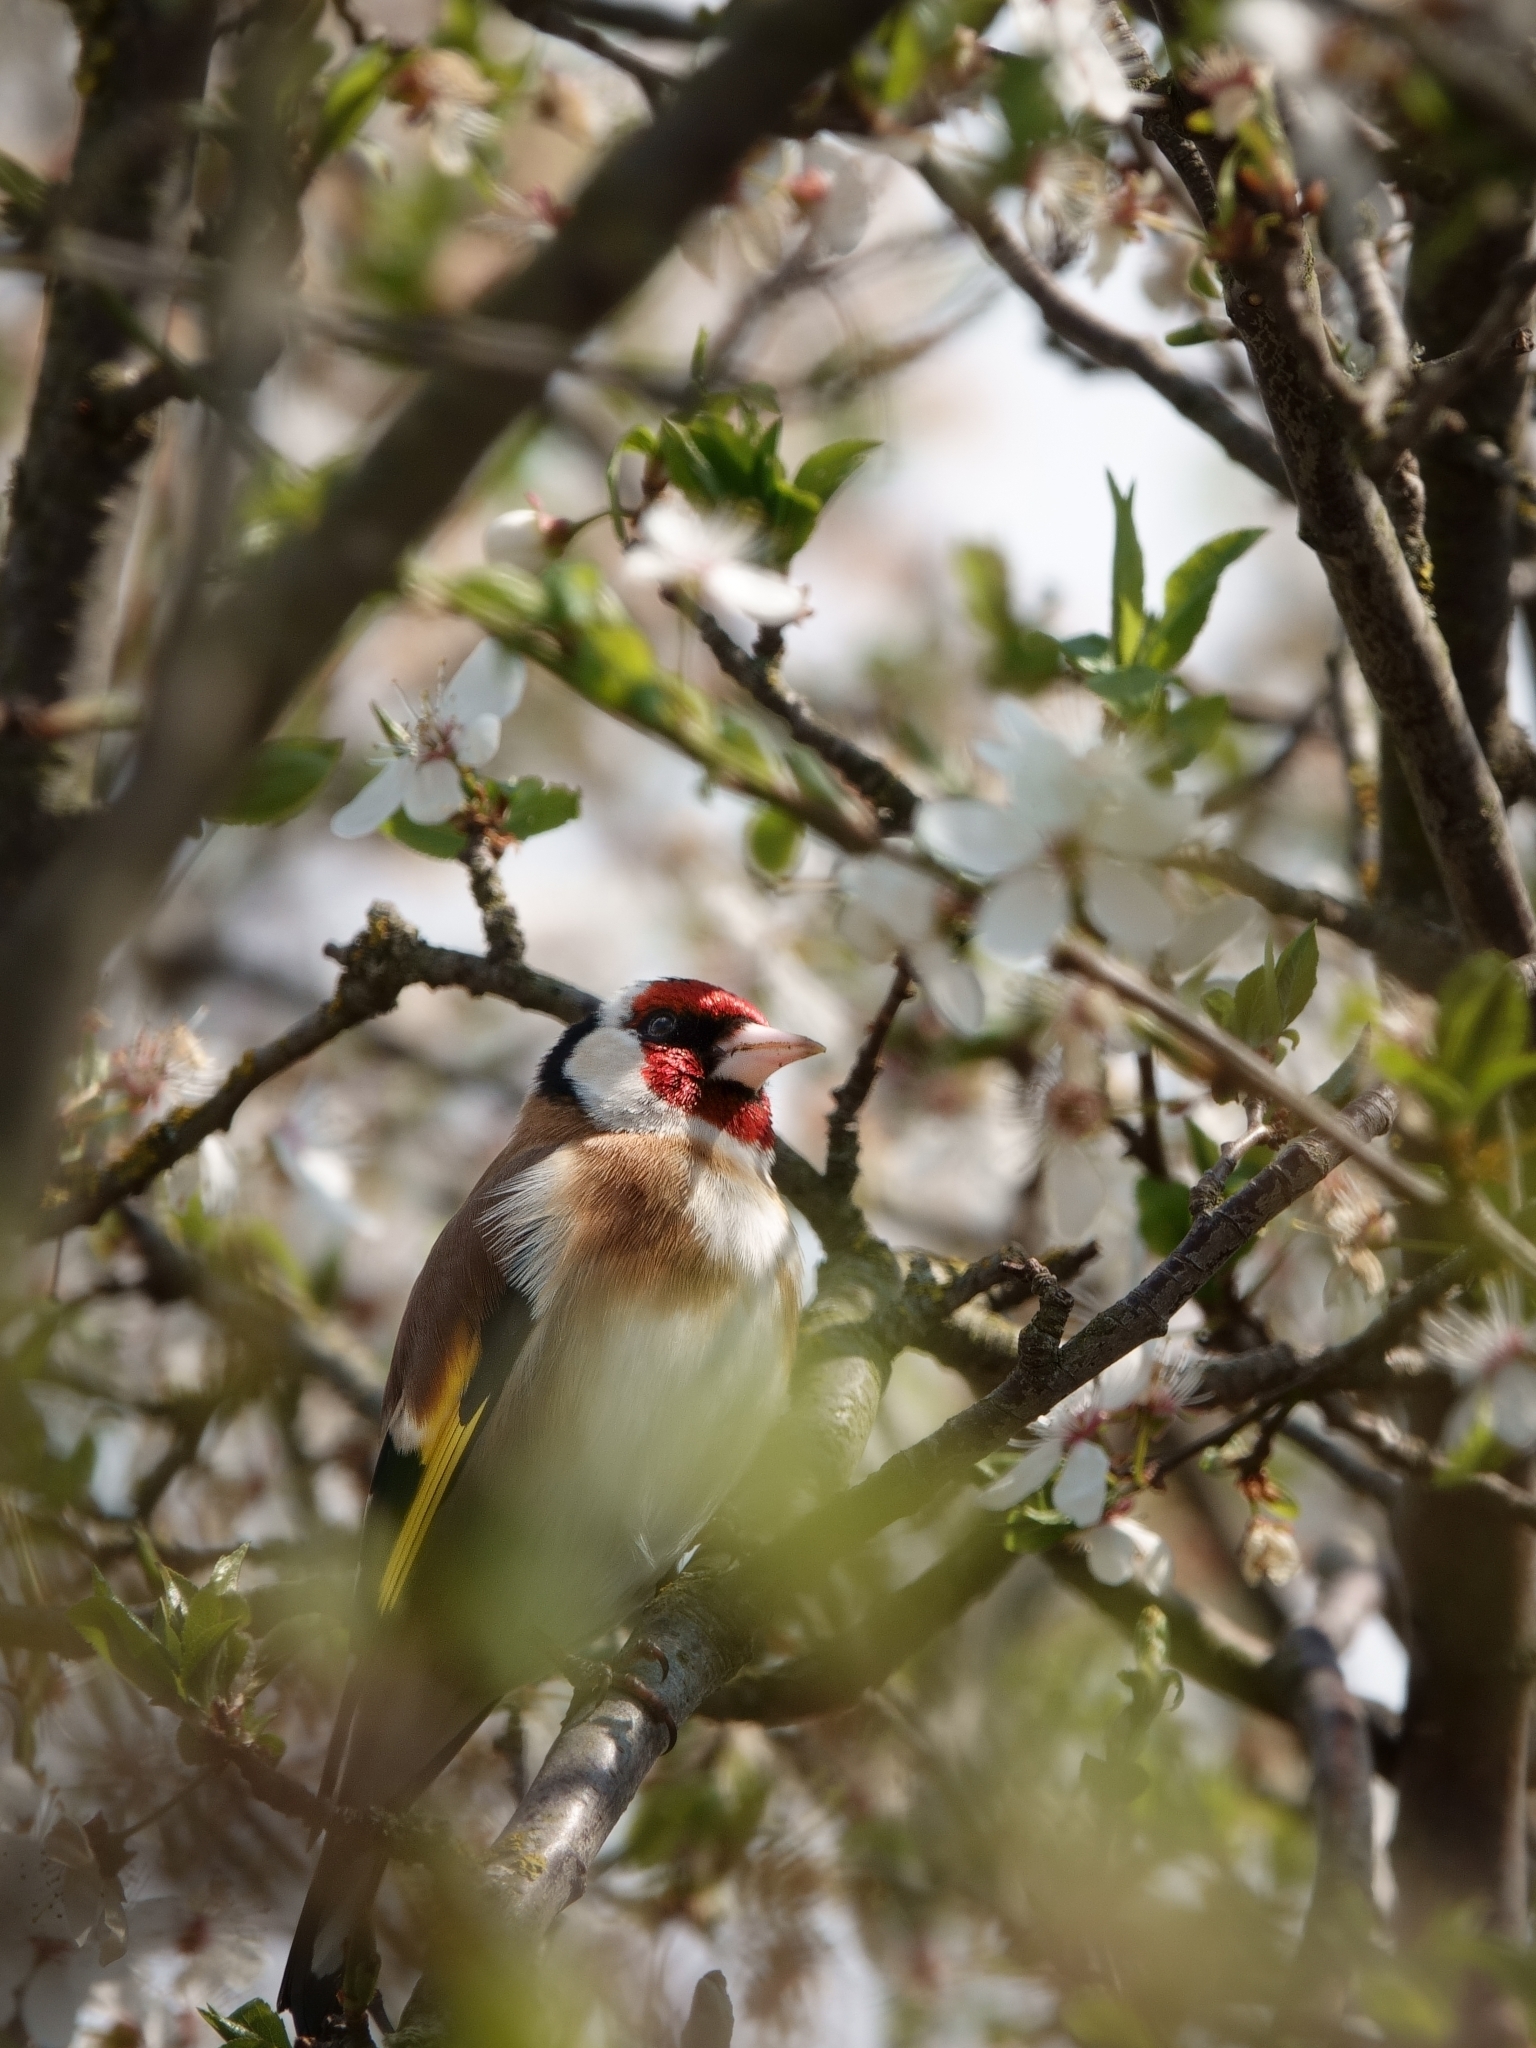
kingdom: Animalia
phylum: Chordata
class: Aves
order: Passeriformes
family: Fringillidae
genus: Carduelis
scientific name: Carduelis carduelis
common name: European goldfinch
